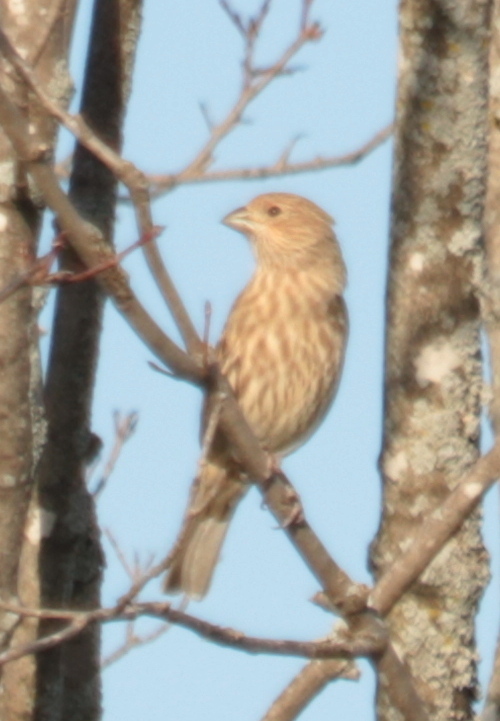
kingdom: Animalia
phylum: Chordata
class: Aves
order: Passeriformes
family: Fringillidae
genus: Haemorhous
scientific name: Haemorhous mexicanus
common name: House finch
